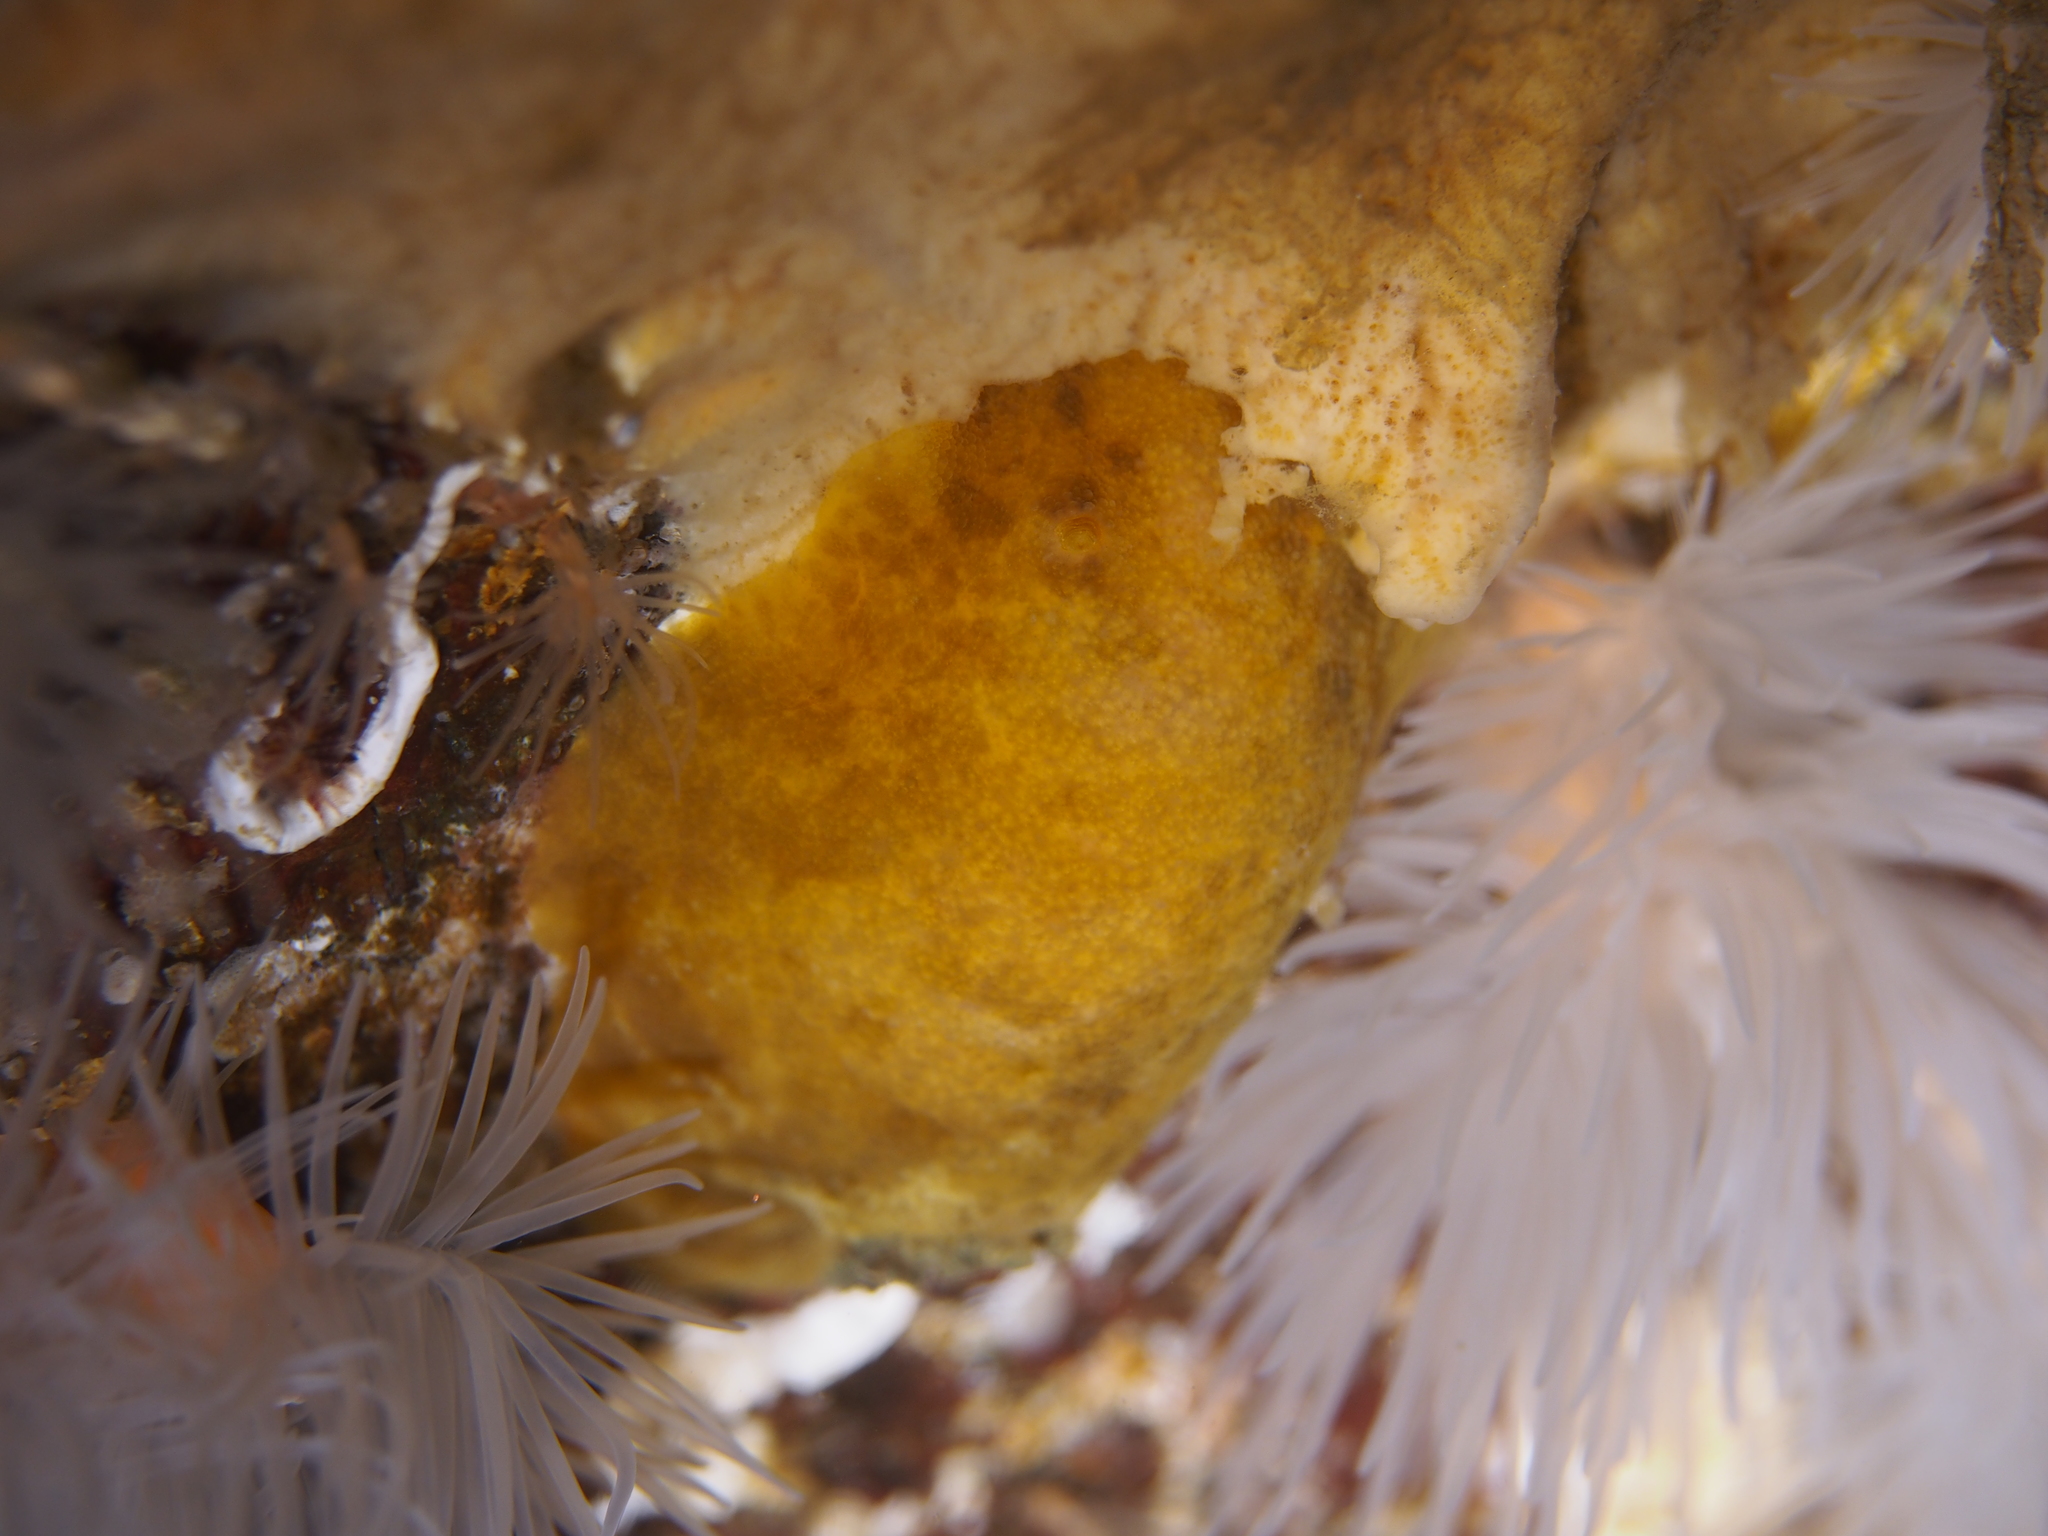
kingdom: Animalia
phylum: Mollusca
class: Gastropoda
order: Nudibranchia
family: Dorididae
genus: Doris
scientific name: Doris pseudoargus
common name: Sea lemon
